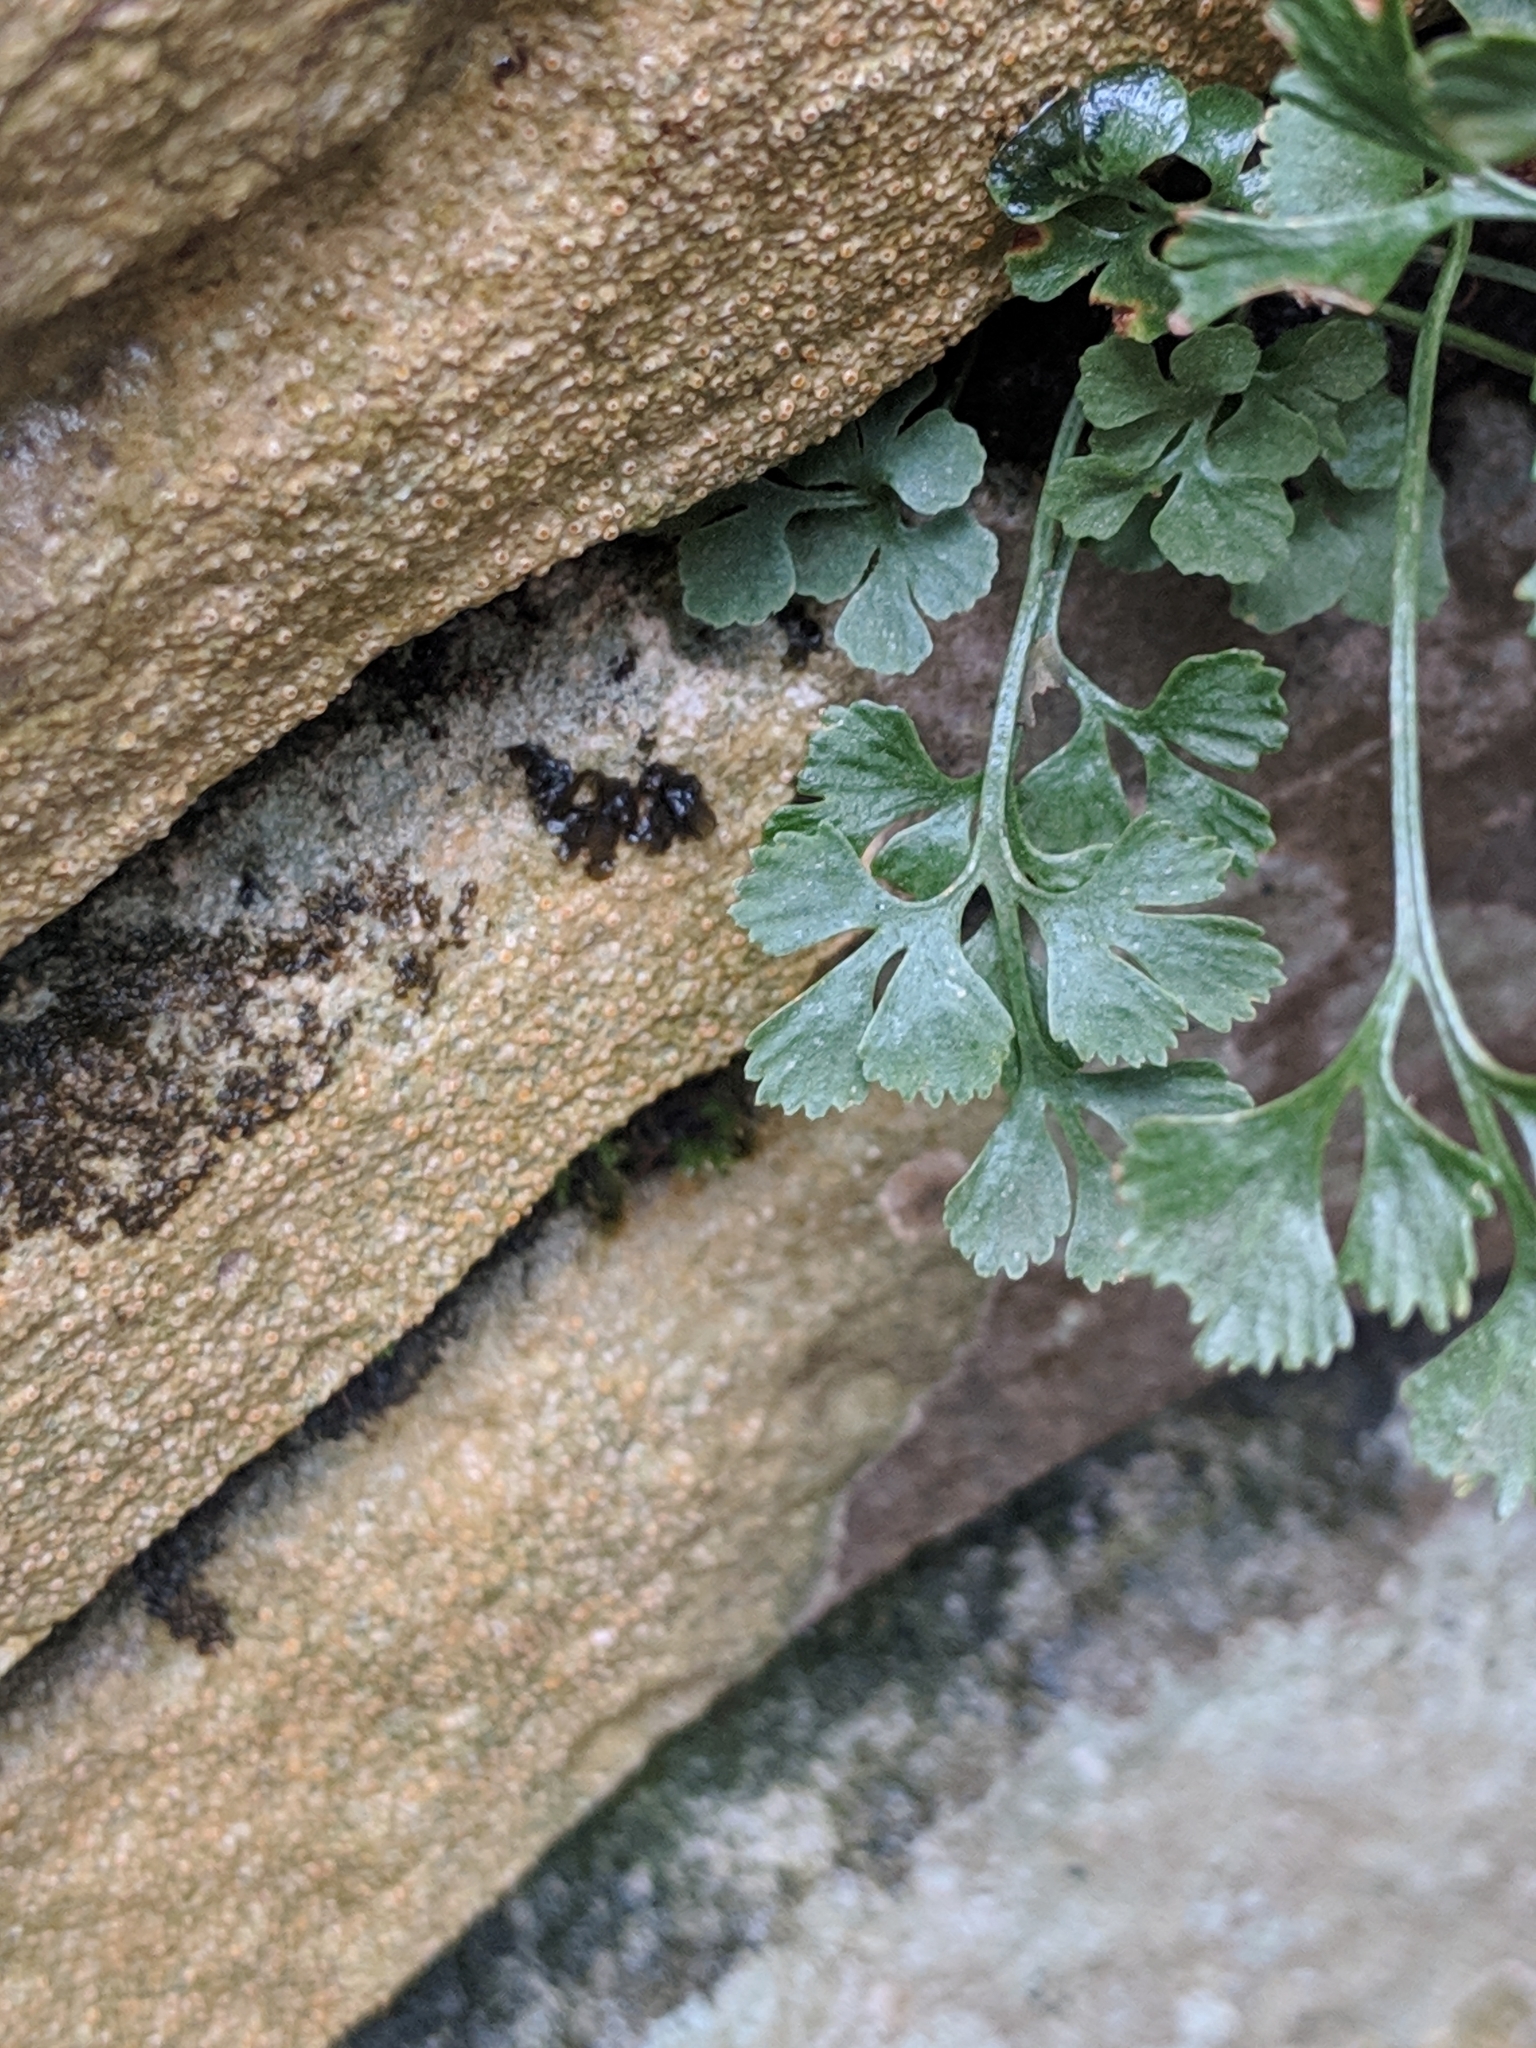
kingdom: Plantae
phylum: Tracheophyta
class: Polypodiopsida
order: Polypodiales
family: Aspleniaceae
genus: Asplenium
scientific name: Asplenium ruta-muraria
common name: Wall-rue
